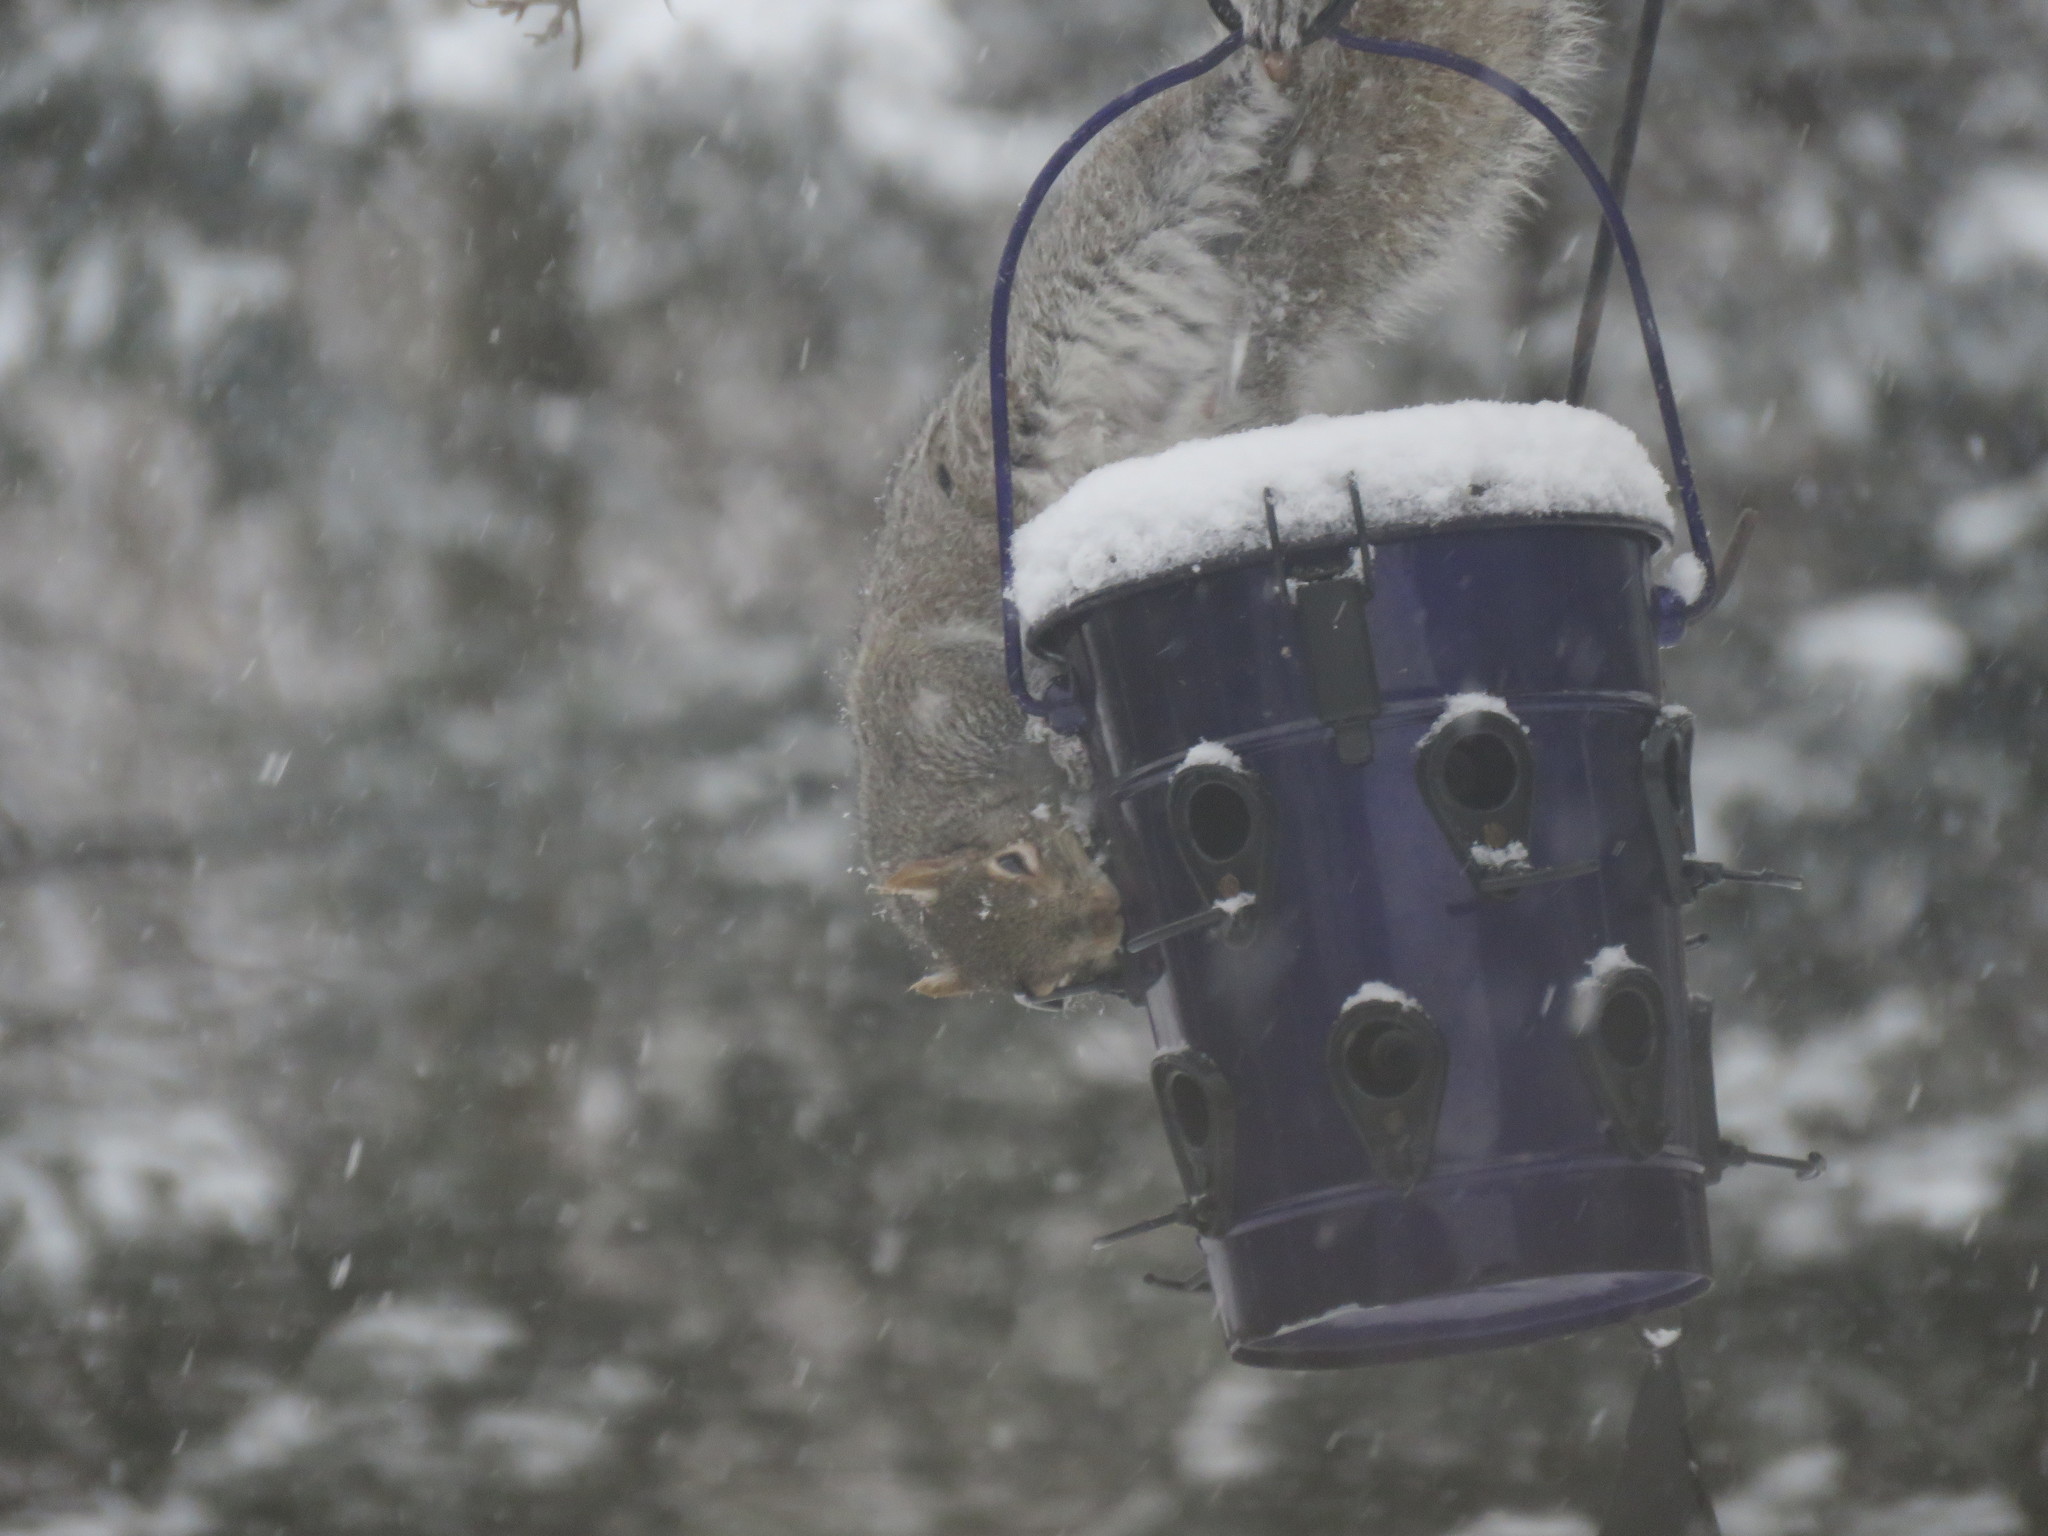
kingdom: Animalia
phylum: Chordata
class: Mammalia
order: Rodentia
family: Sciuridae
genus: Sciurus
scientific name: Sciurus carolinensis
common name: Eastern gray squirrel
